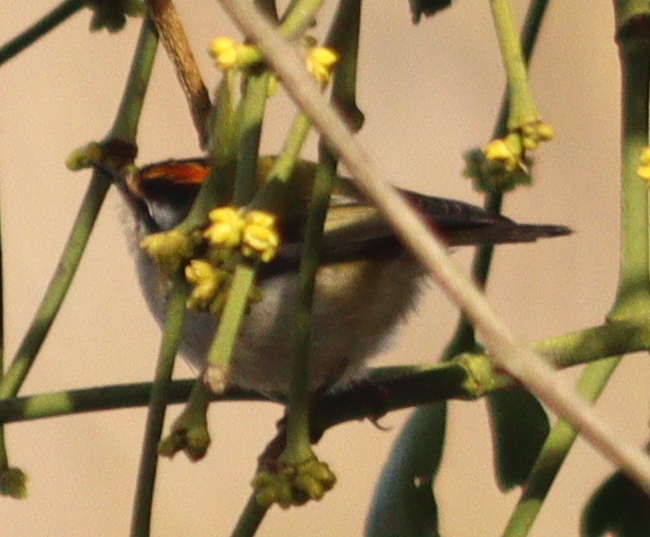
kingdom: Animalia
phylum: Chordata
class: Aves
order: Passeriformes
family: Regulidae
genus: Regulus
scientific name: Regulus ignicapilla
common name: Firecrest
